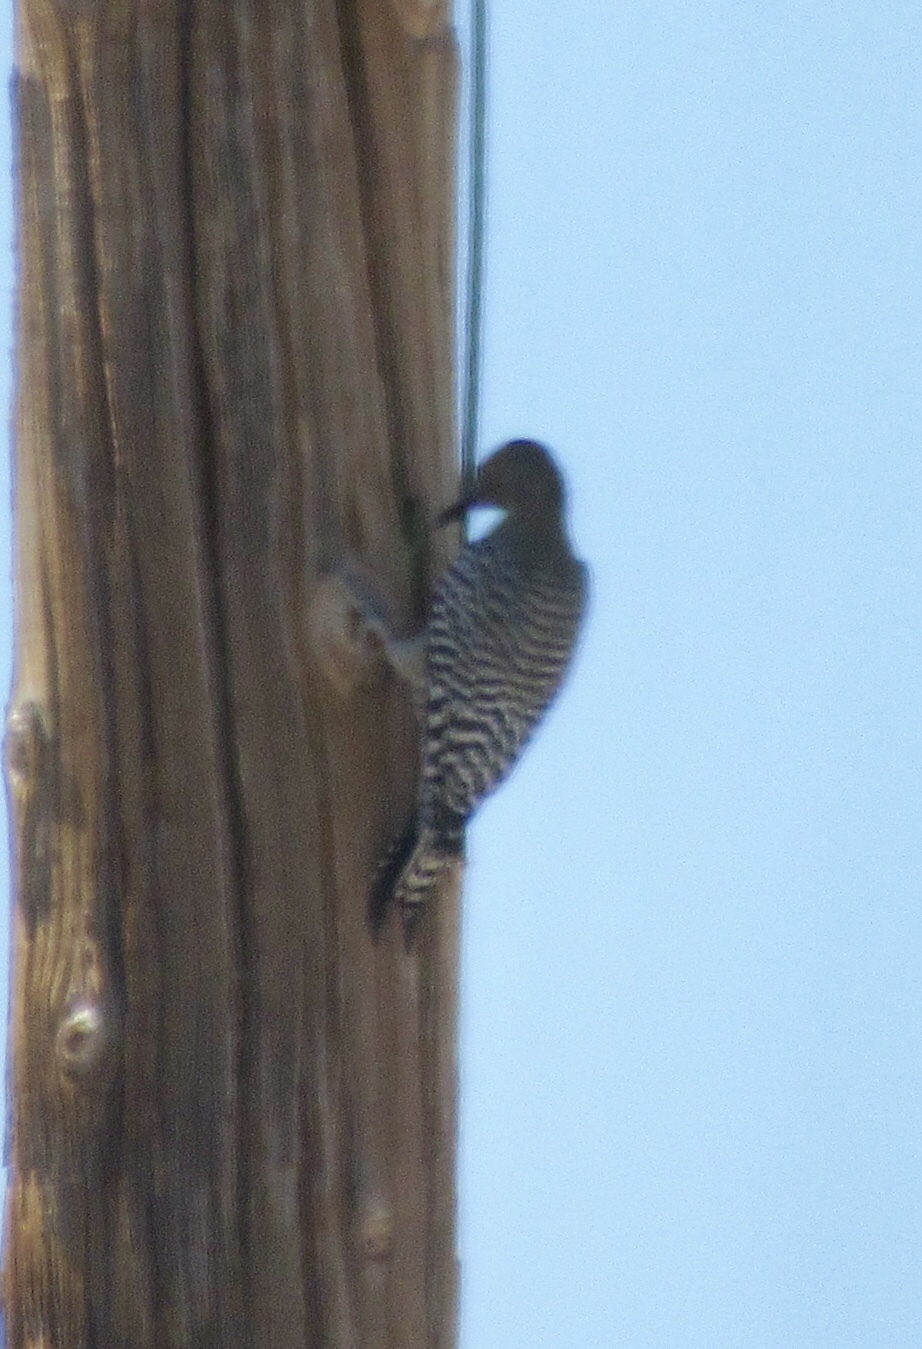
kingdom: Animalia
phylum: Chordata
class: Aves
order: Piciformes
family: Picidae
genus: Melanerpes
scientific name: Melanerpes uropygialis
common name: Gila woodpecker
